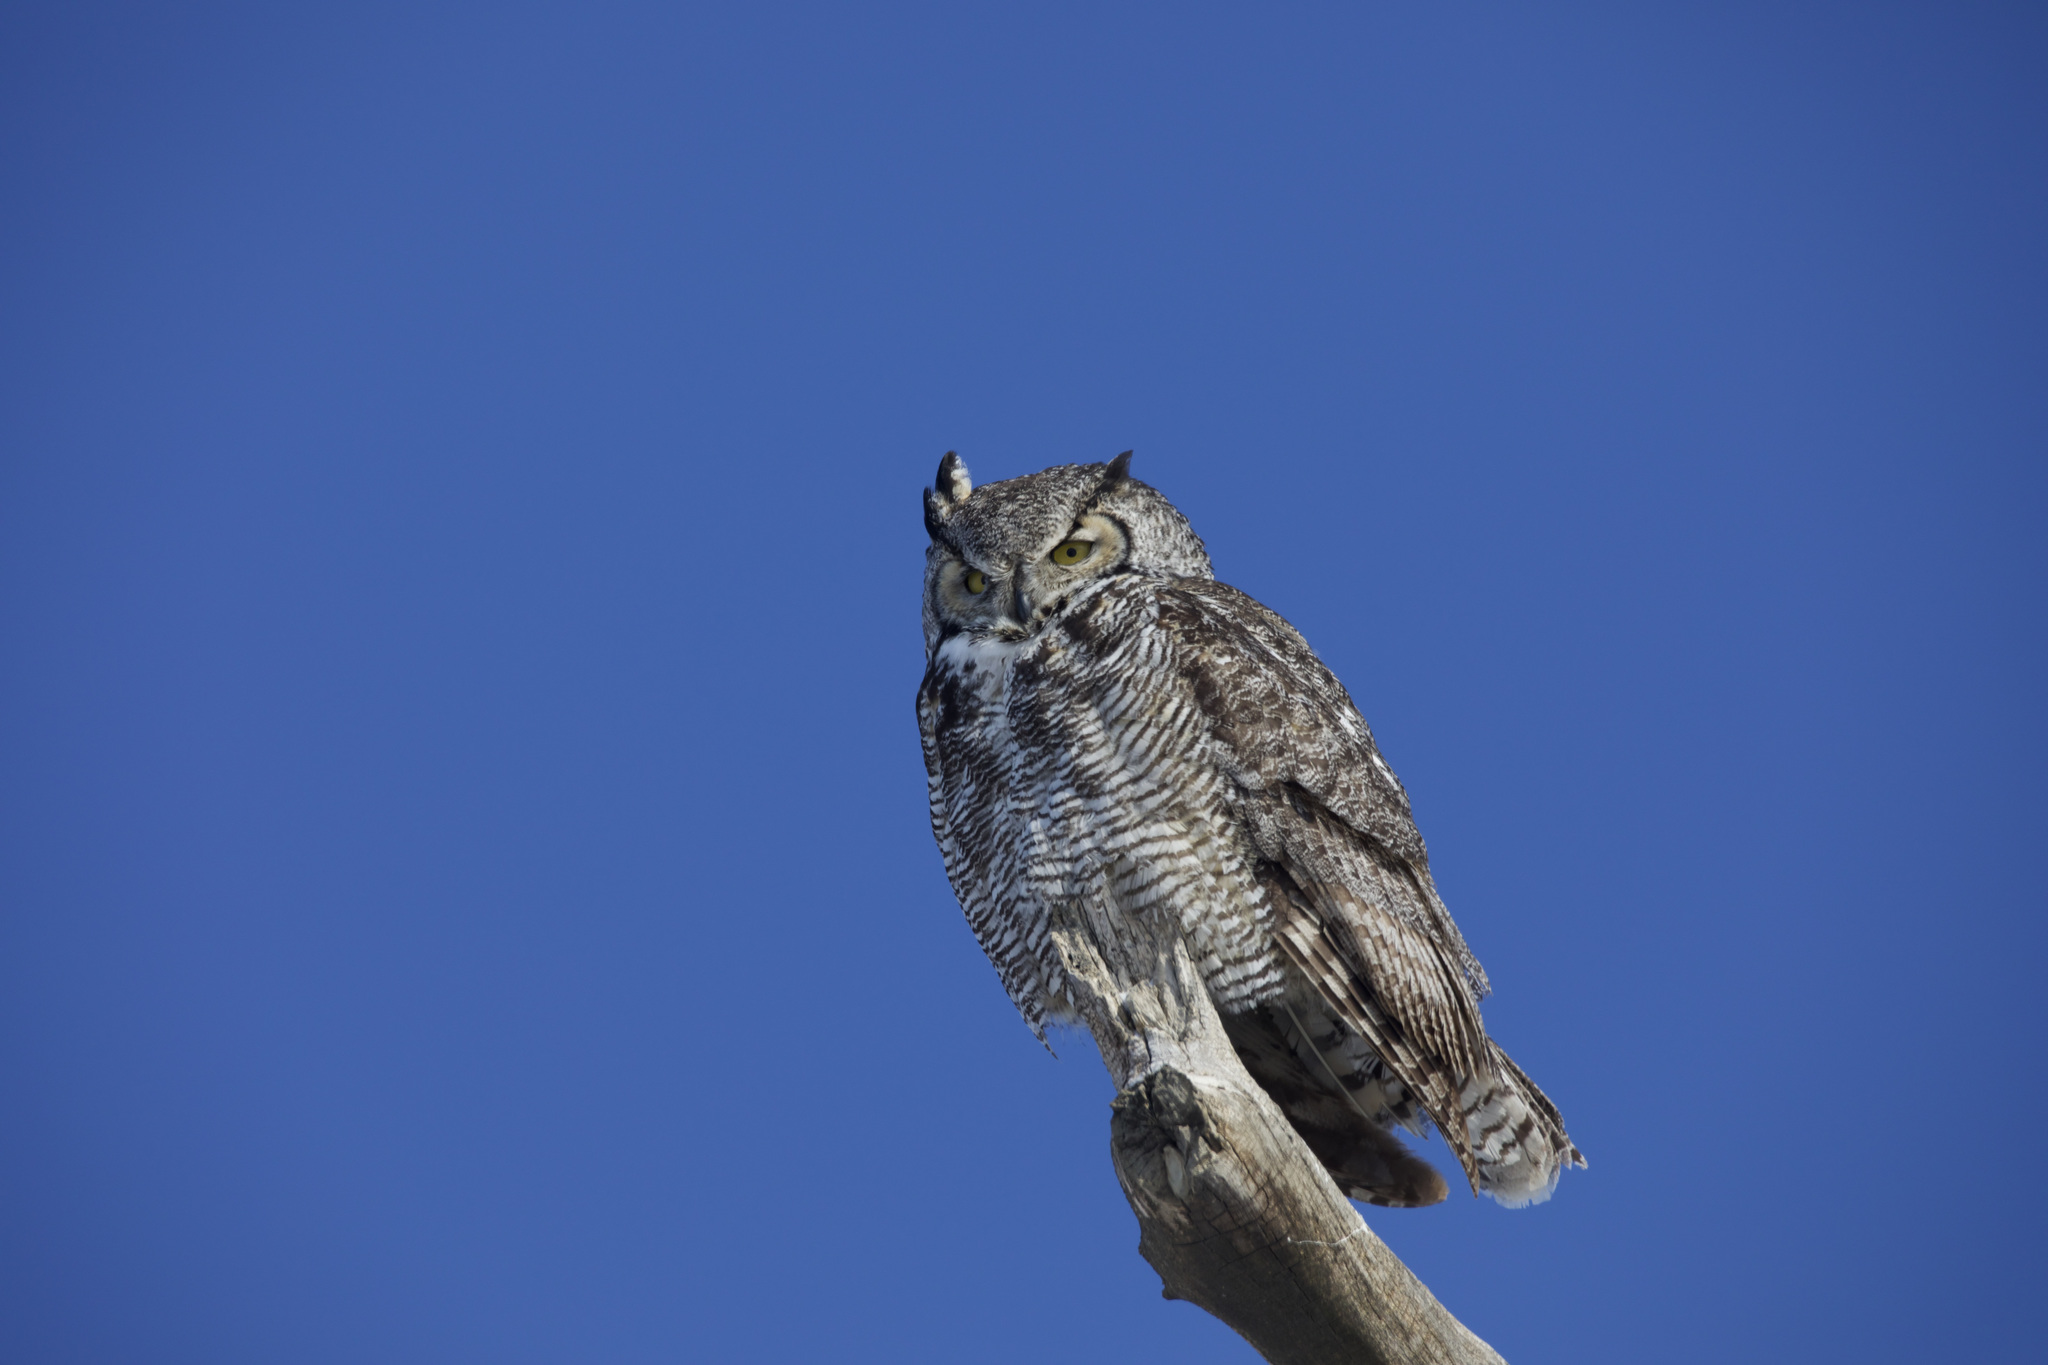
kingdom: Animalia
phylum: Chordata
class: Aves
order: Strigiformes
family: Strigidae
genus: Bubo
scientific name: Bubo virginianus
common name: Great horned owl
